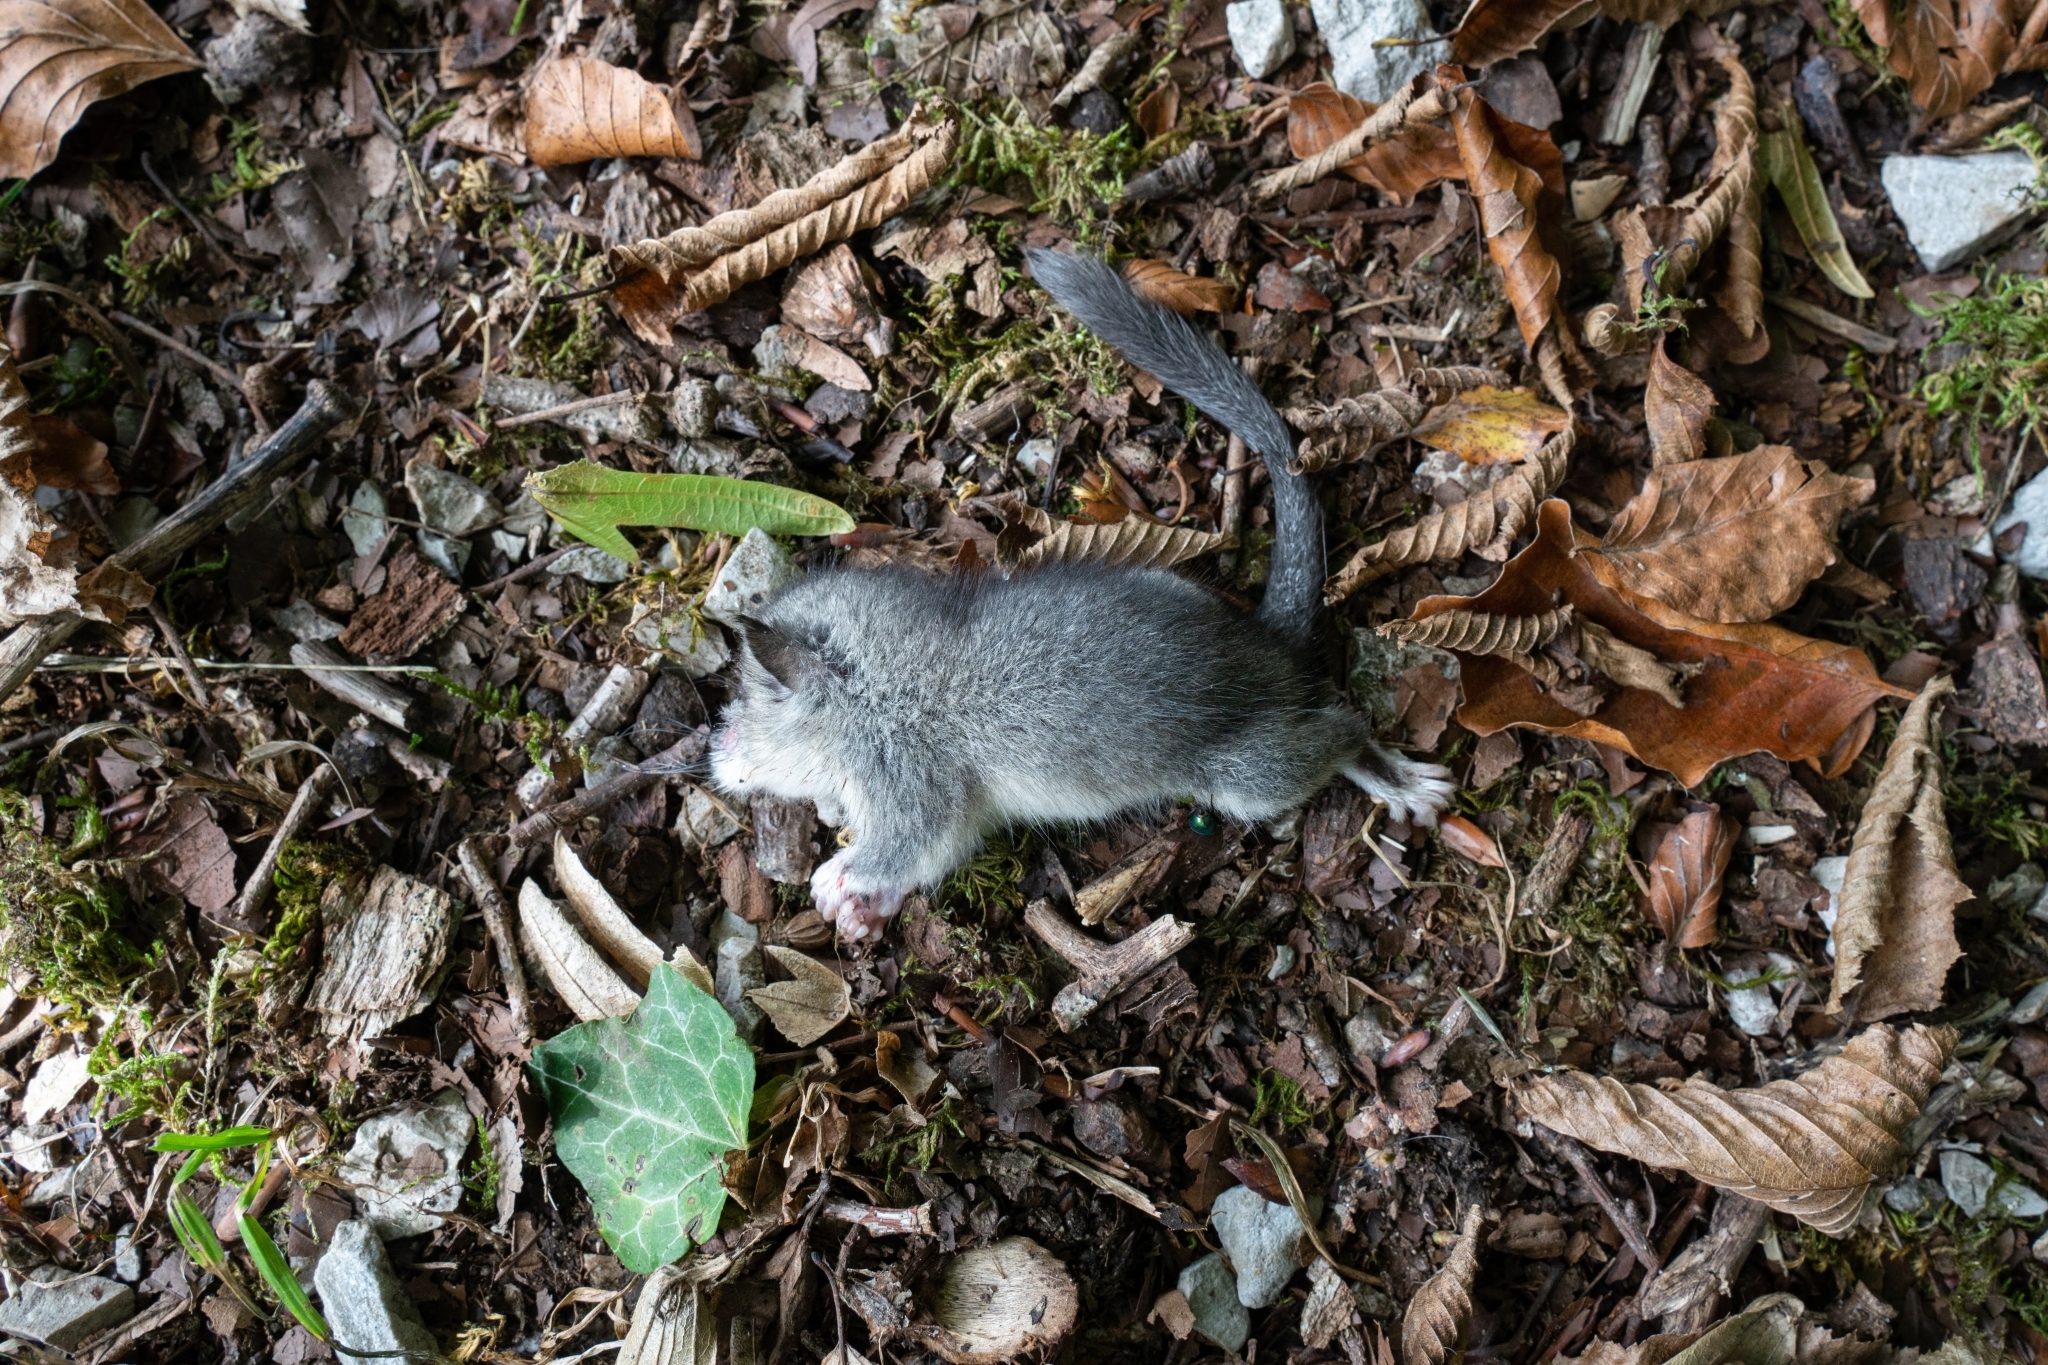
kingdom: Animalia
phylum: Chordata
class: Mammalia
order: Rodentia
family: Gliridae
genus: Glis
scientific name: Glis glis
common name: Fat dormouse
